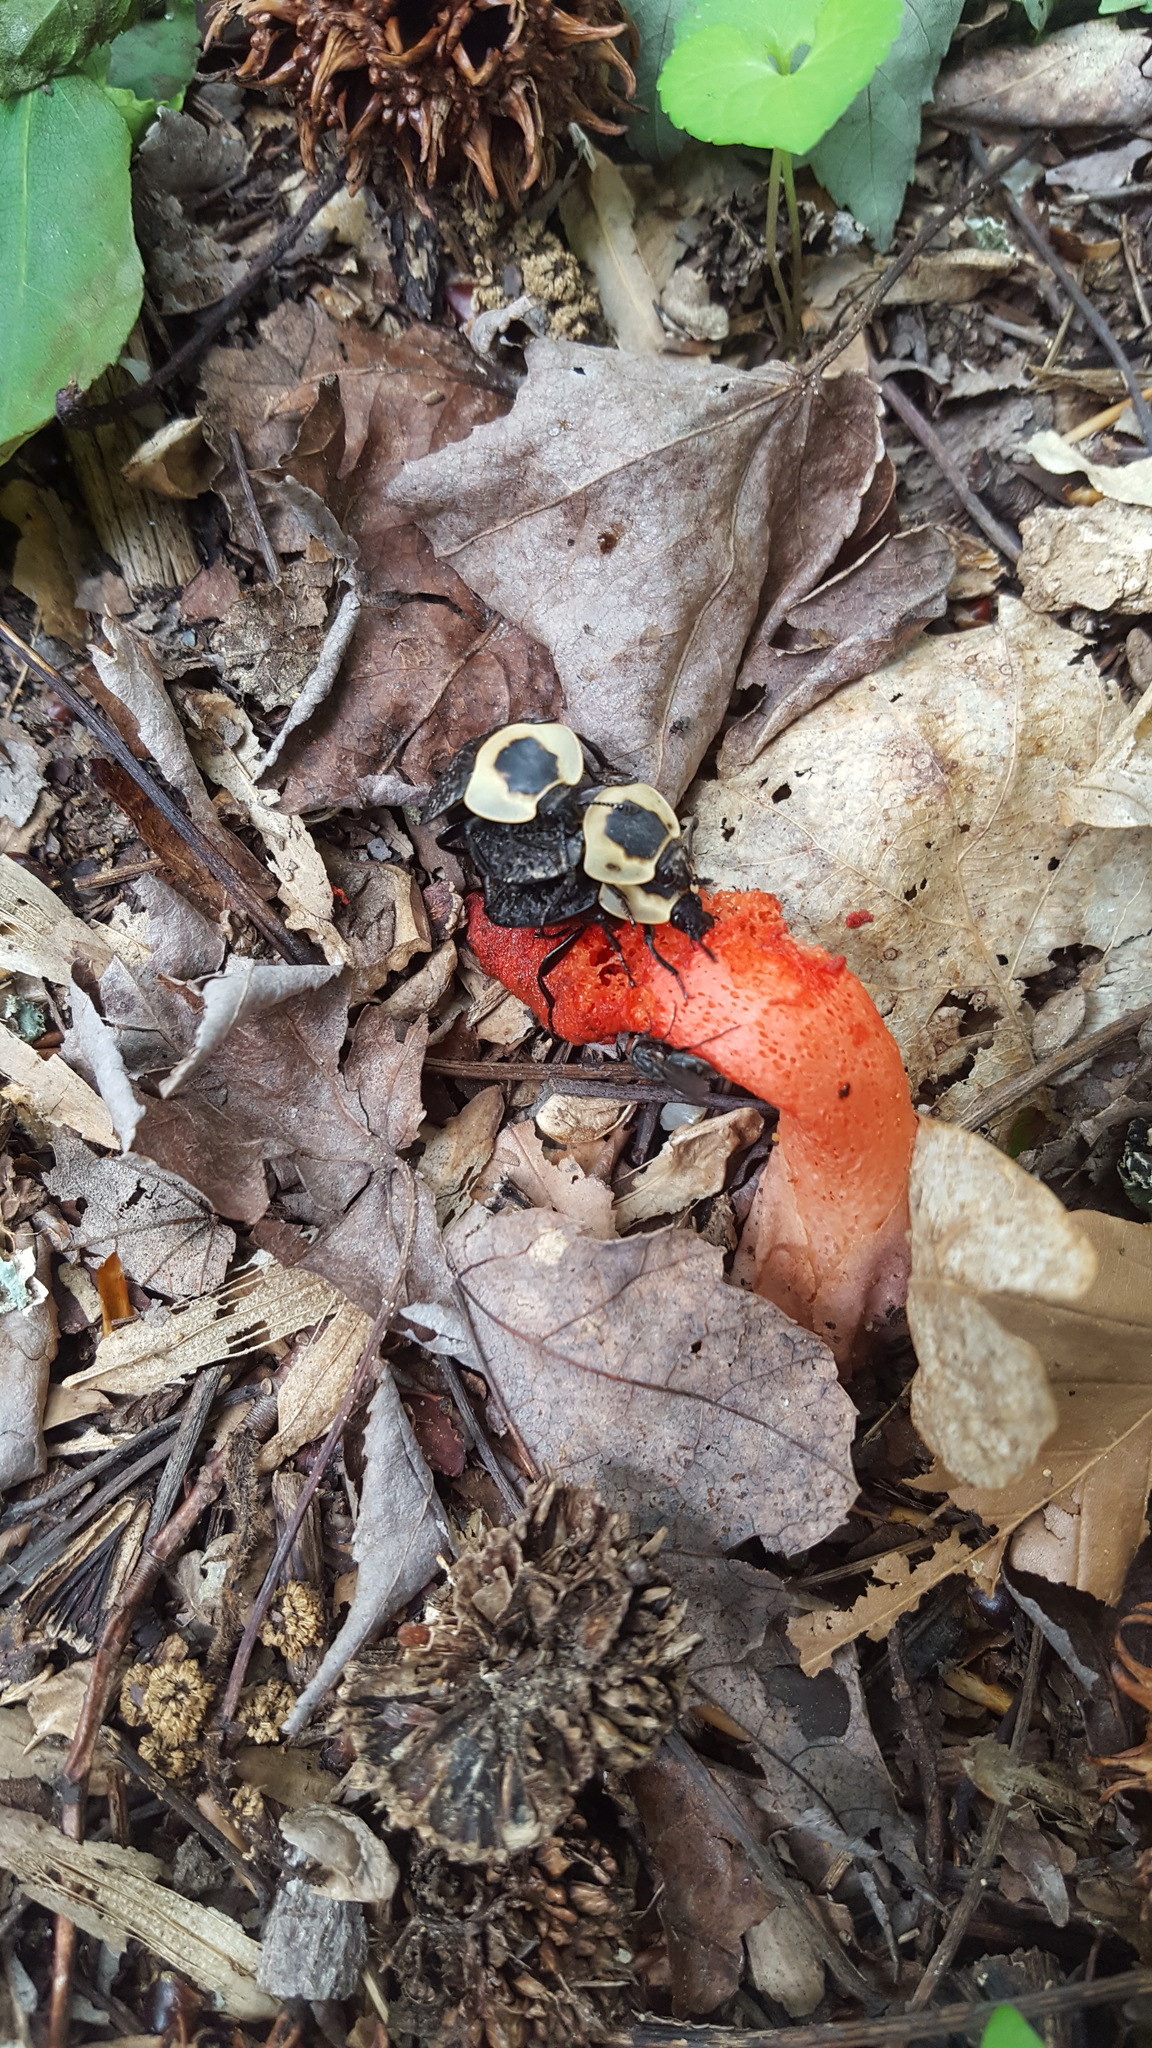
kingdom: Animalia
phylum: Arthropoda
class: Insecta
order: Coleoptera
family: Staphylinidae
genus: Necrophila
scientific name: Necrophila americana
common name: American carrion beetle
